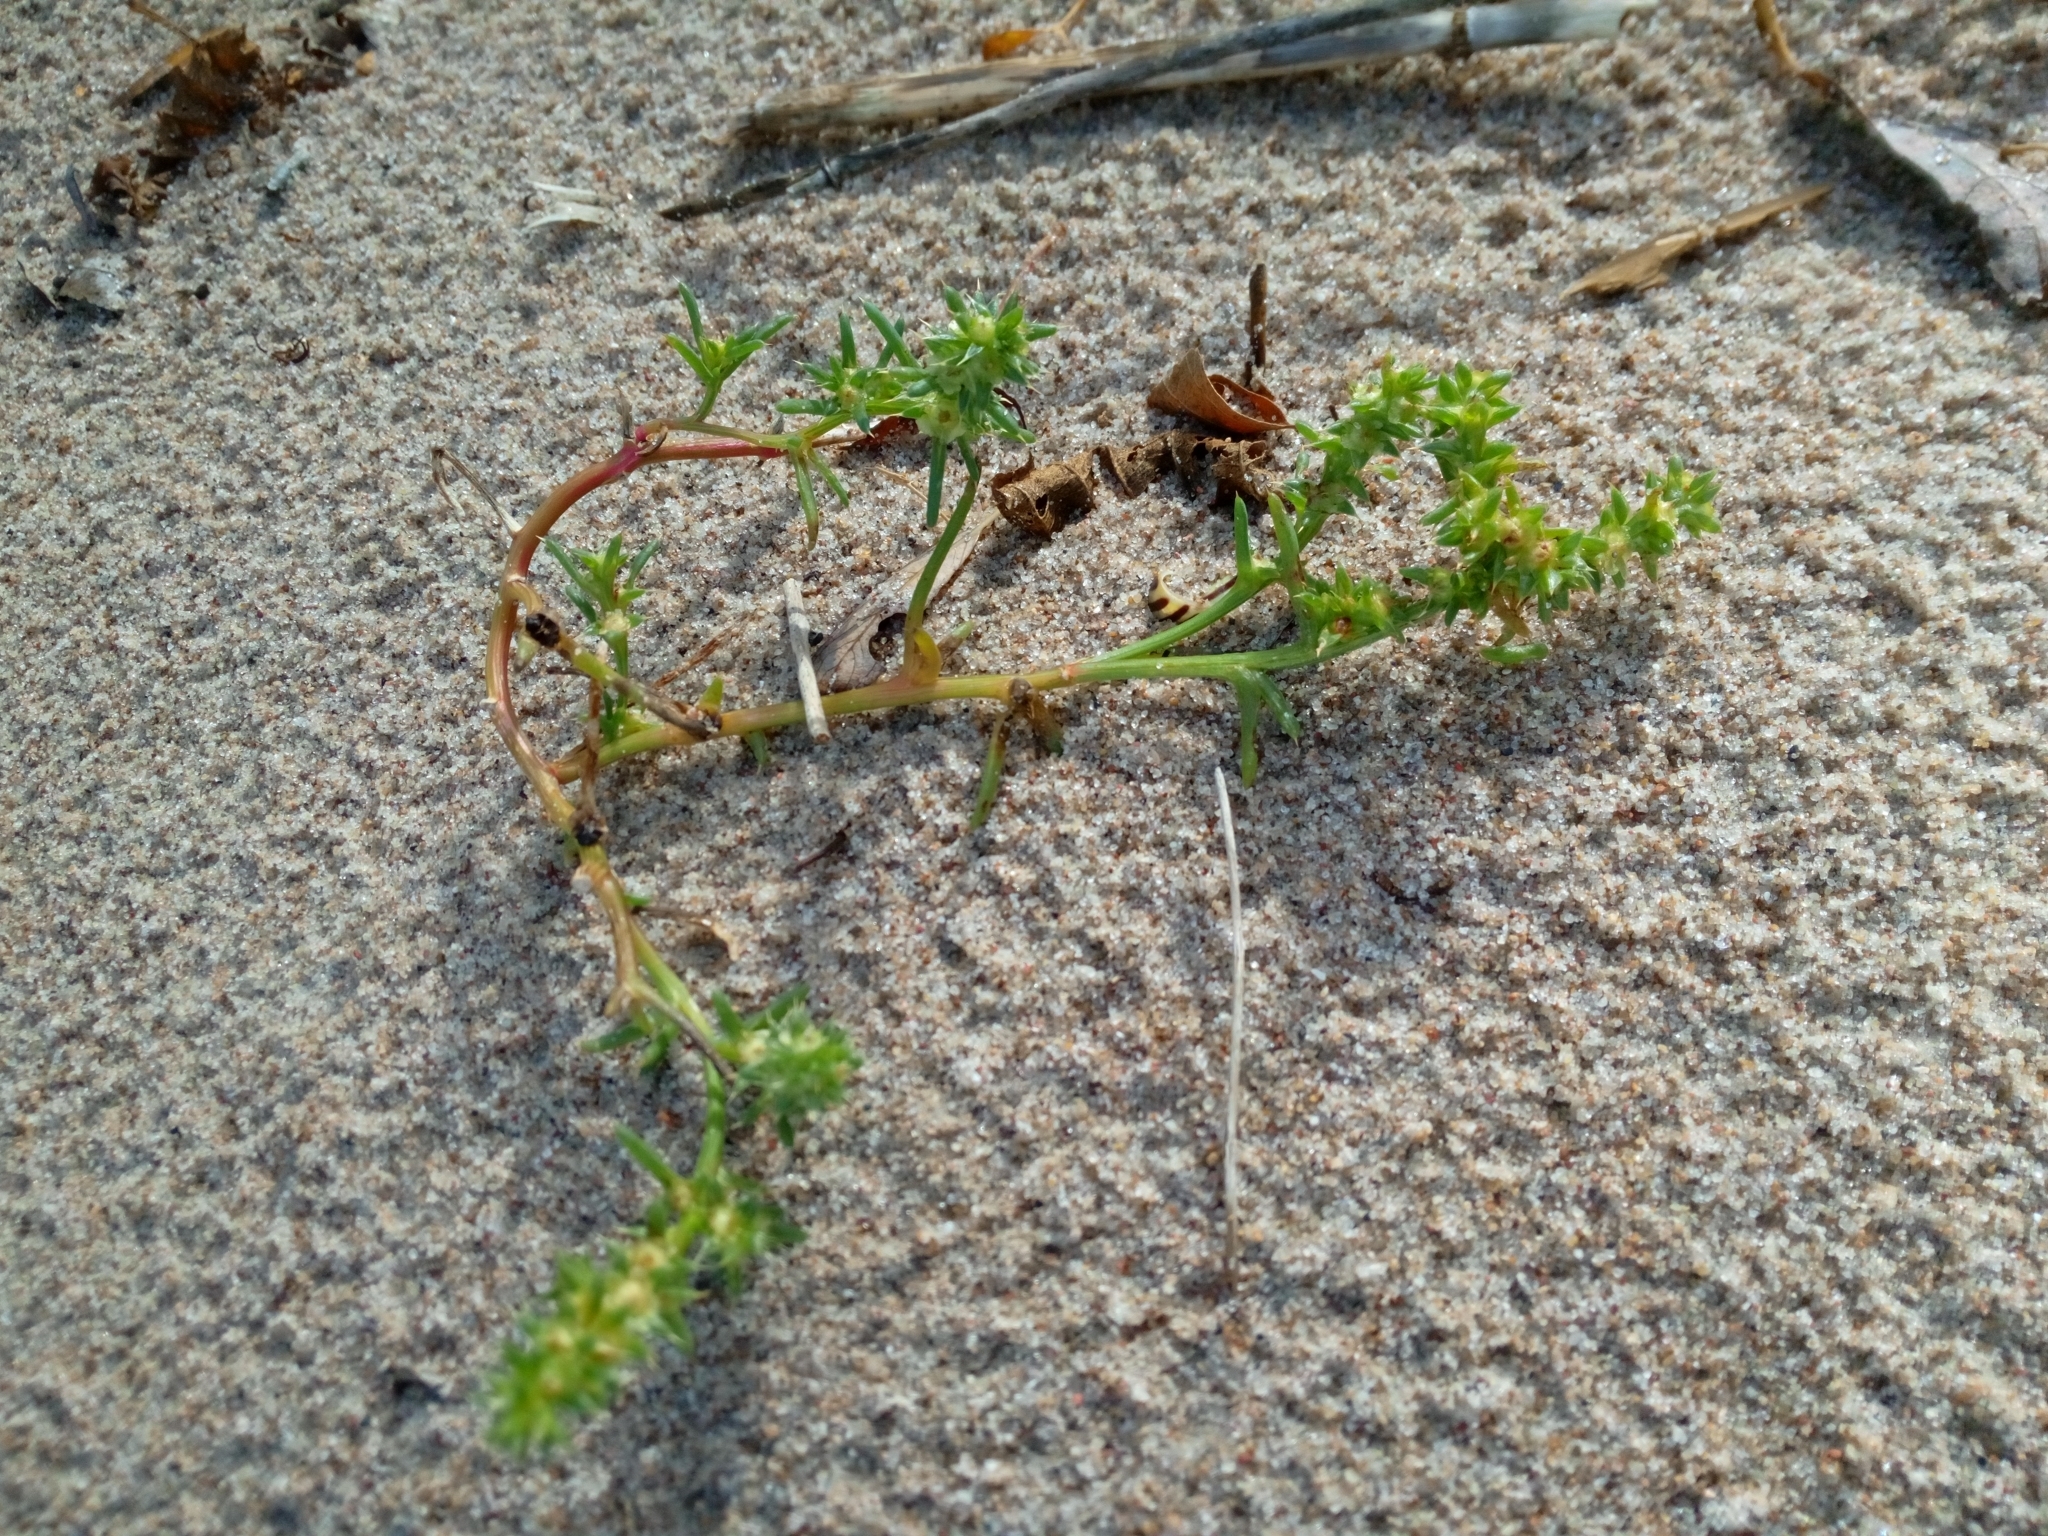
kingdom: Plantae
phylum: Tracheophyta
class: Magnoliopsida
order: Caryophyllales
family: Amaranthaceae
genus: Salsola
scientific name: Salsola kali
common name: Saltwort
